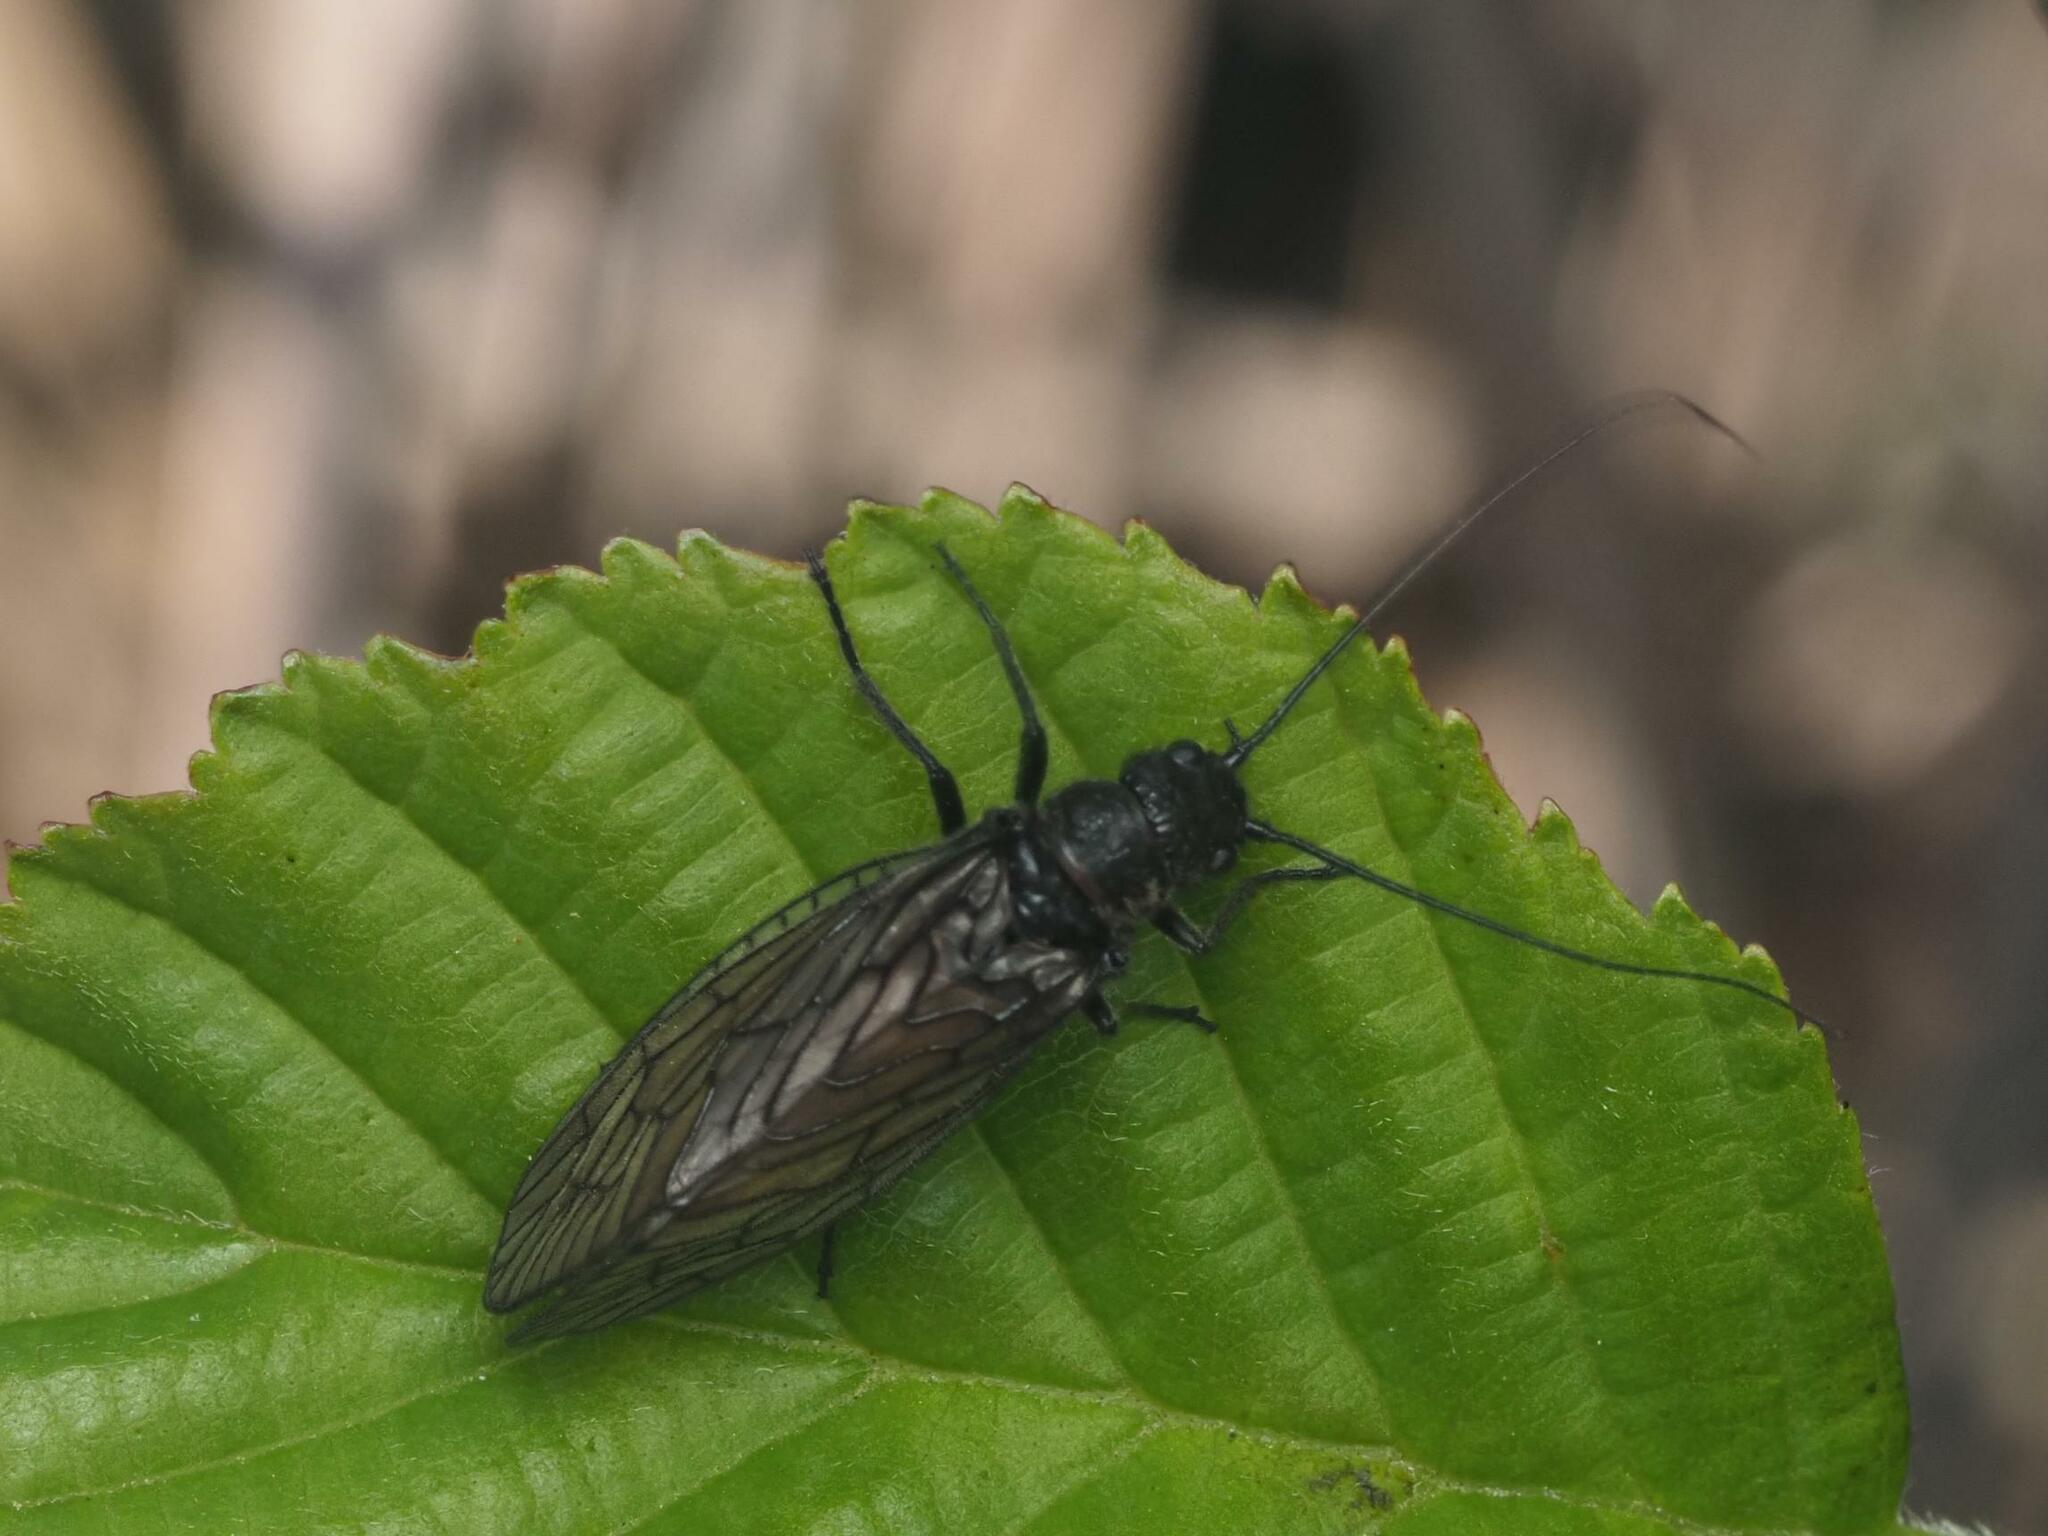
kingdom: Animalia
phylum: Arthropoda
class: Insecta
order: Megaloptera
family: Sialidae
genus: Sialis
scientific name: Sialis
